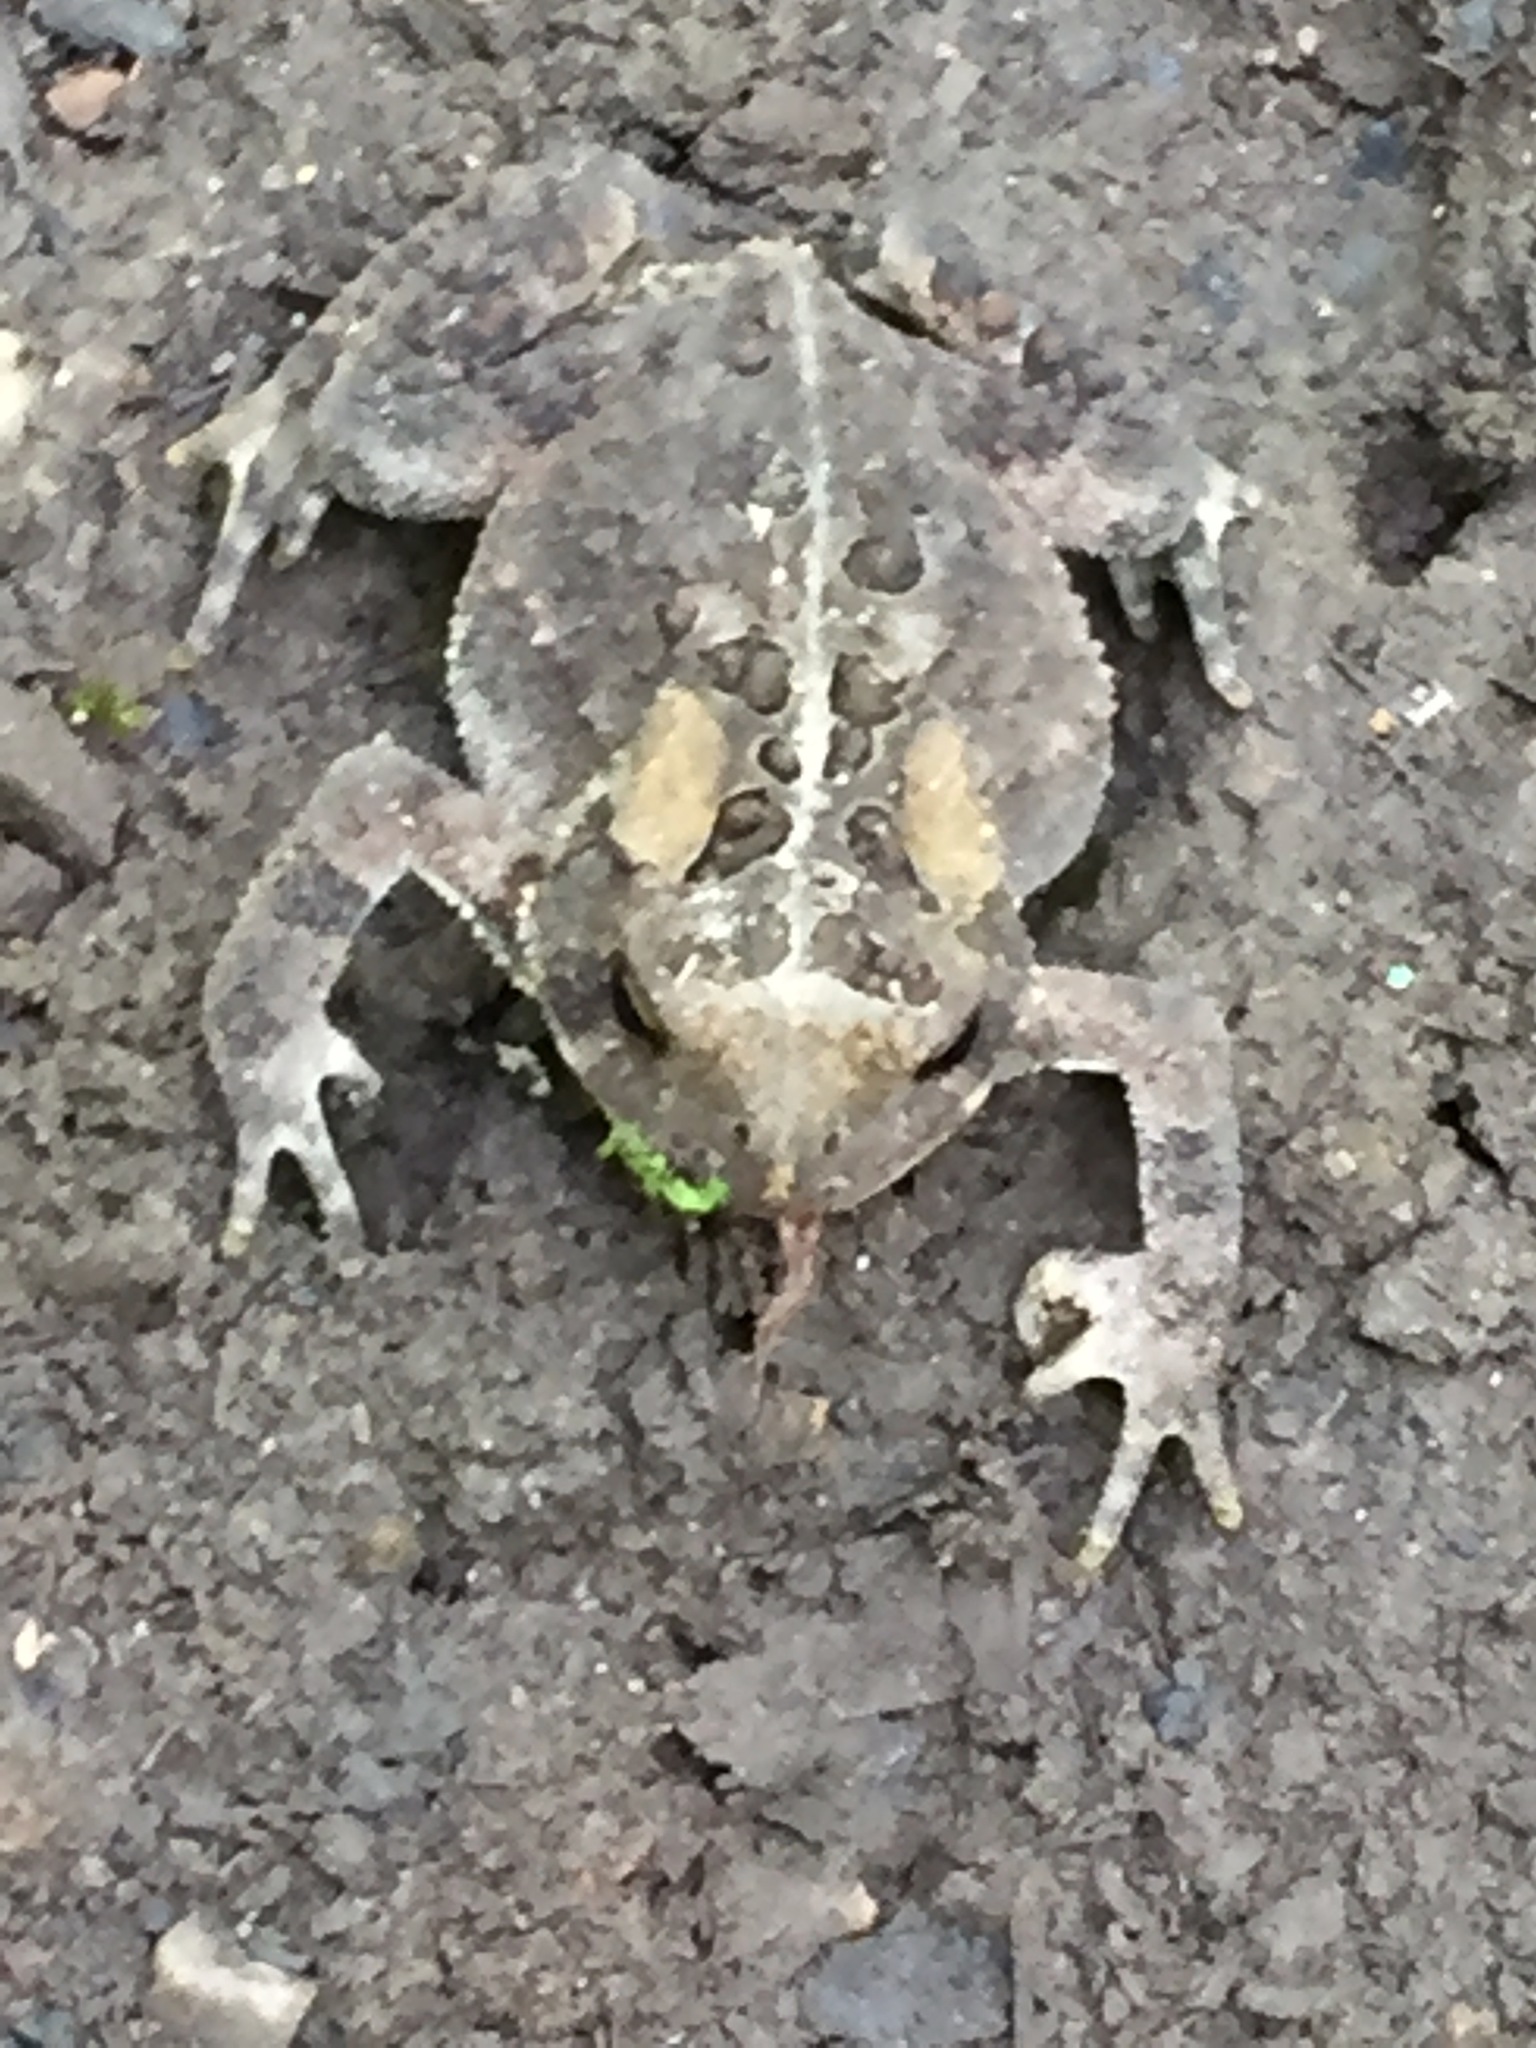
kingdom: Animalia
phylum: Chordata
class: Amphibia
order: Anura
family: Bufonidae
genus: Anaxyrus
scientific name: Anaxyrus americanus
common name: American toad
